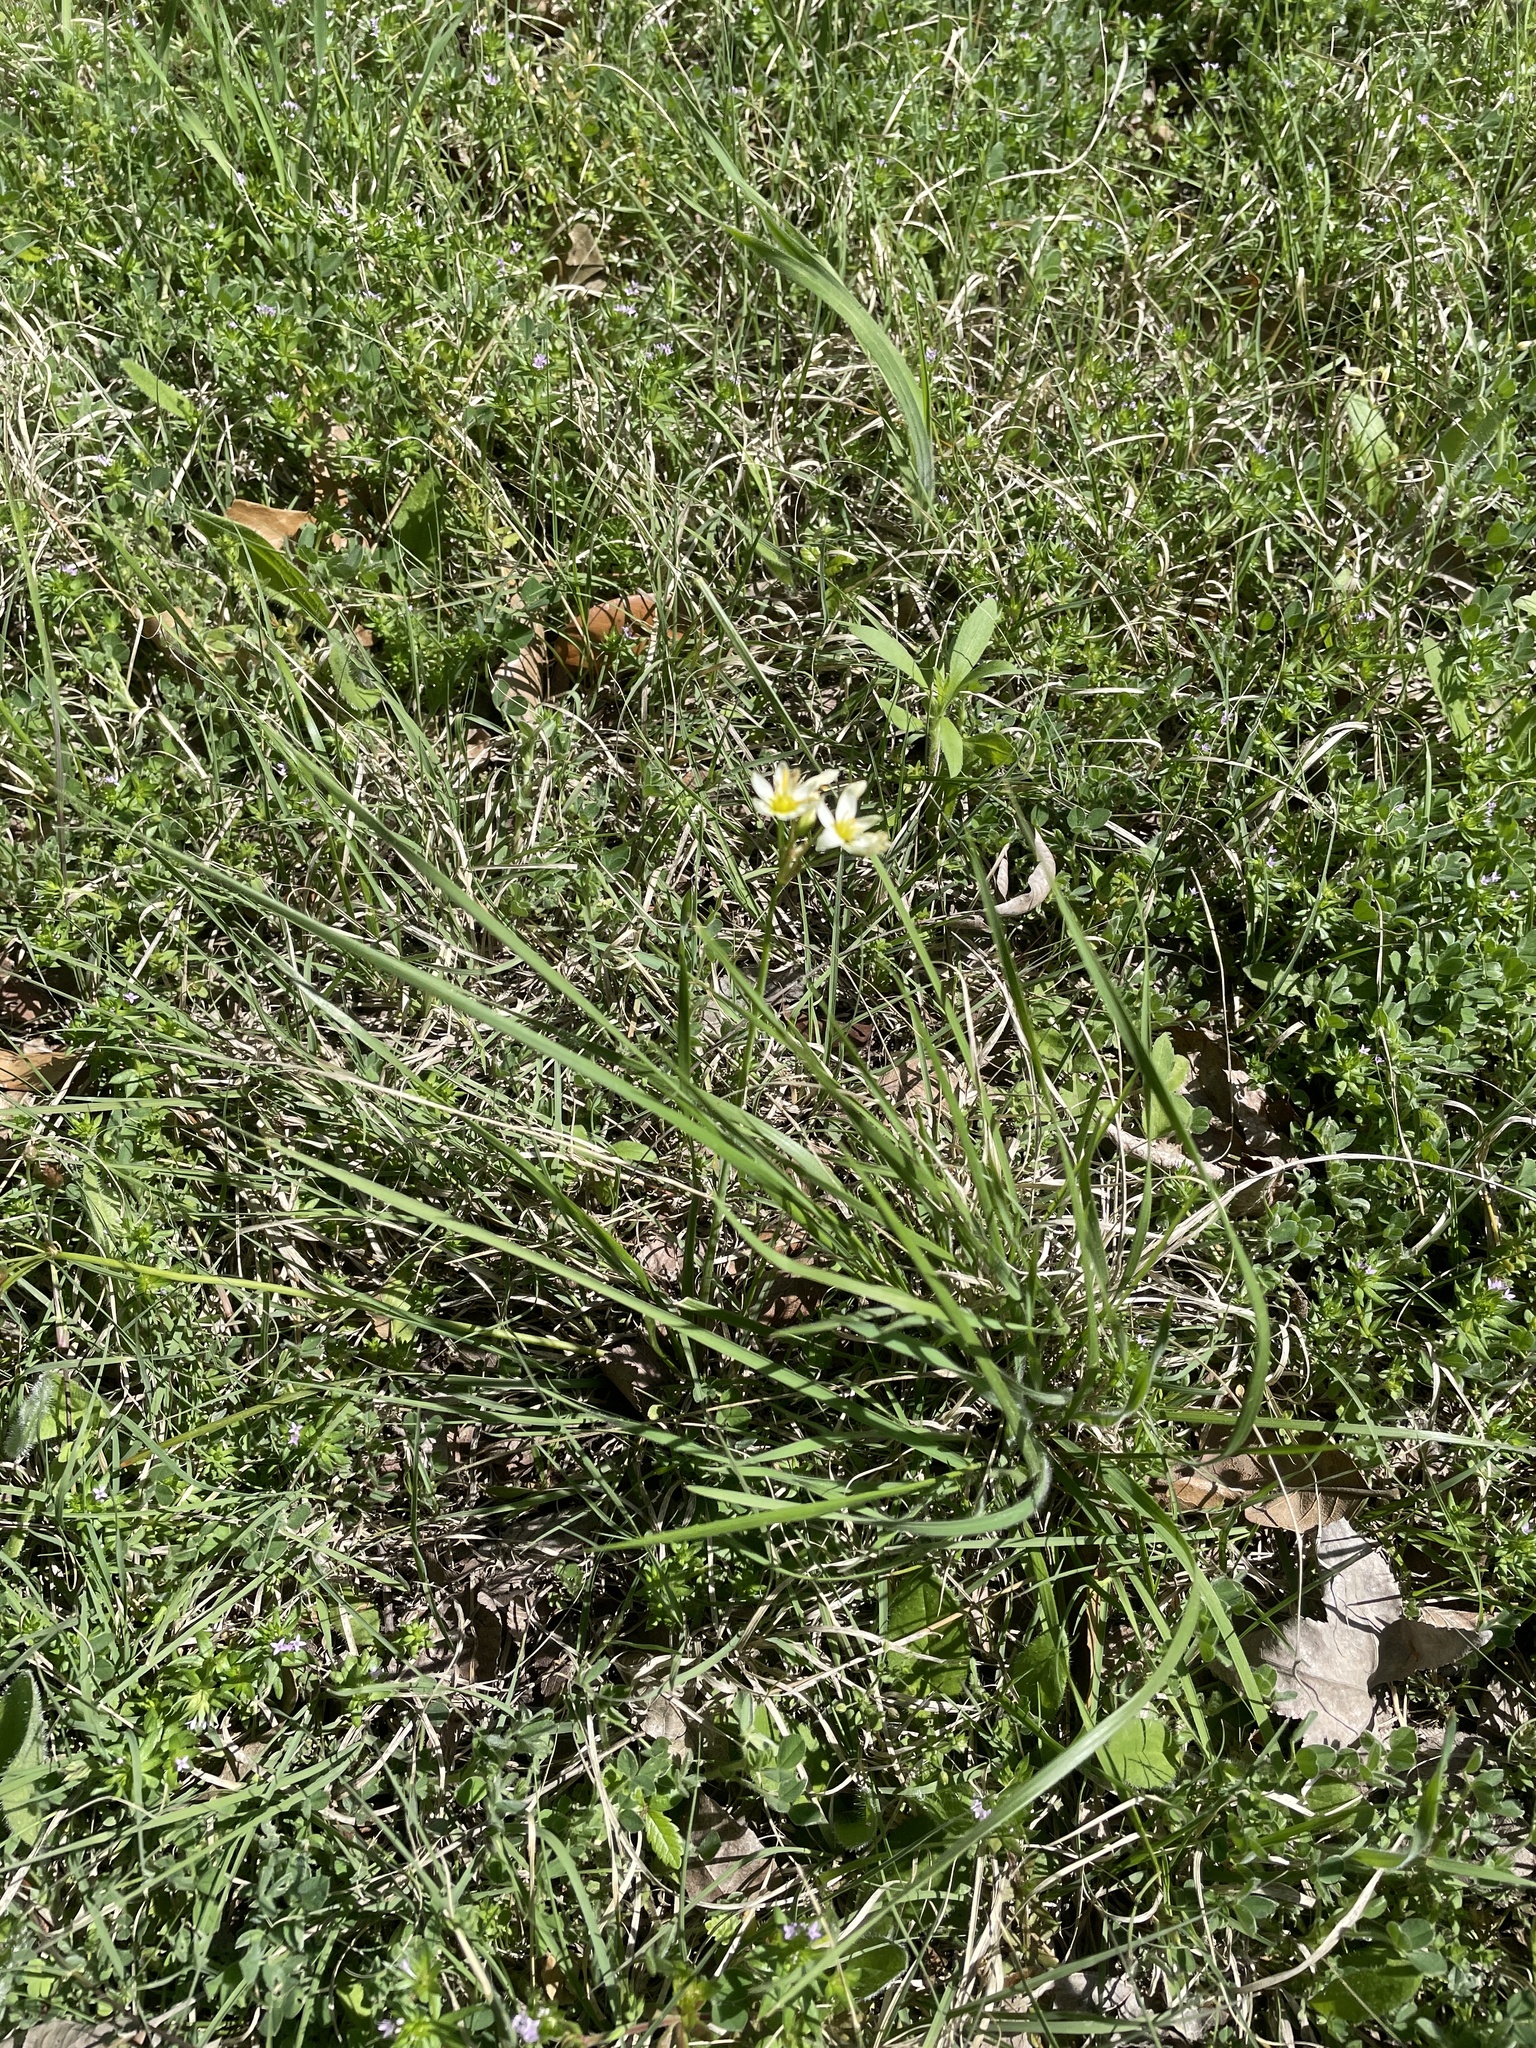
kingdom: Plantae
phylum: Tracheophyta
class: Liliopsida
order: Asparagales
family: Amaryllidaceae
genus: Nothoscordum
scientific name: Nothoscordum bivalve
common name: Crow-poison
